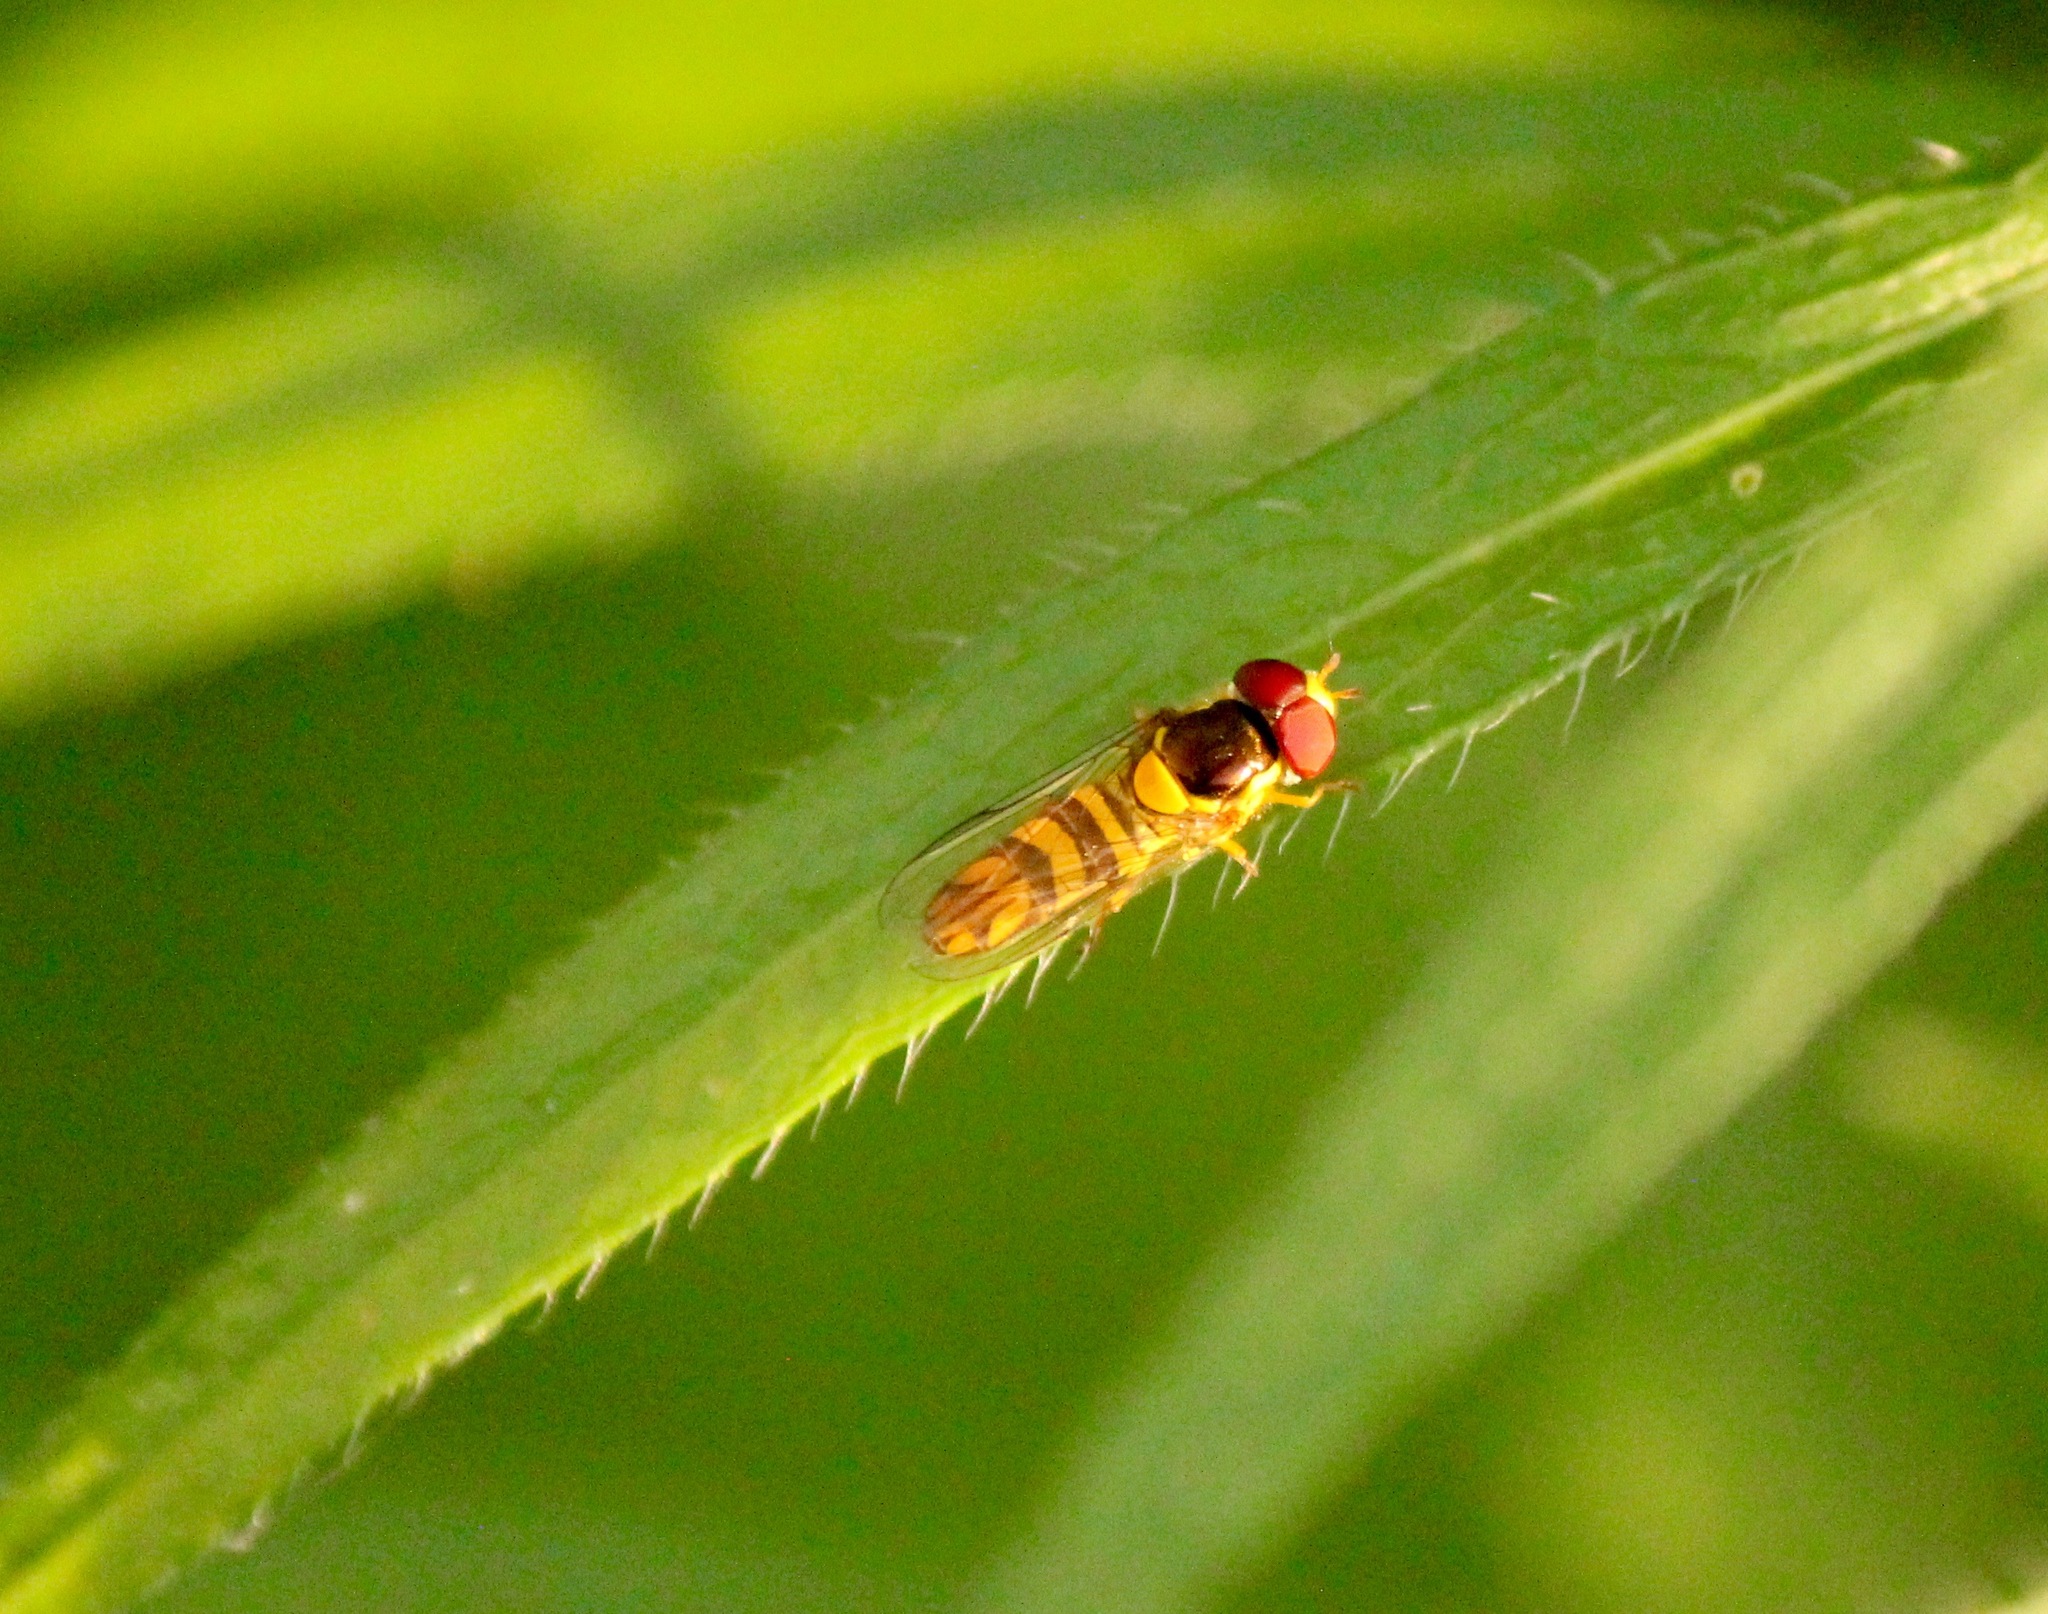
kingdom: Animalia
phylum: Arthropoda
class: Insecta
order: Diptera
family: Syrphidae
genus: Allograpta
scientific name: Allograpta obliqua
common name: Common oblique syrphid
